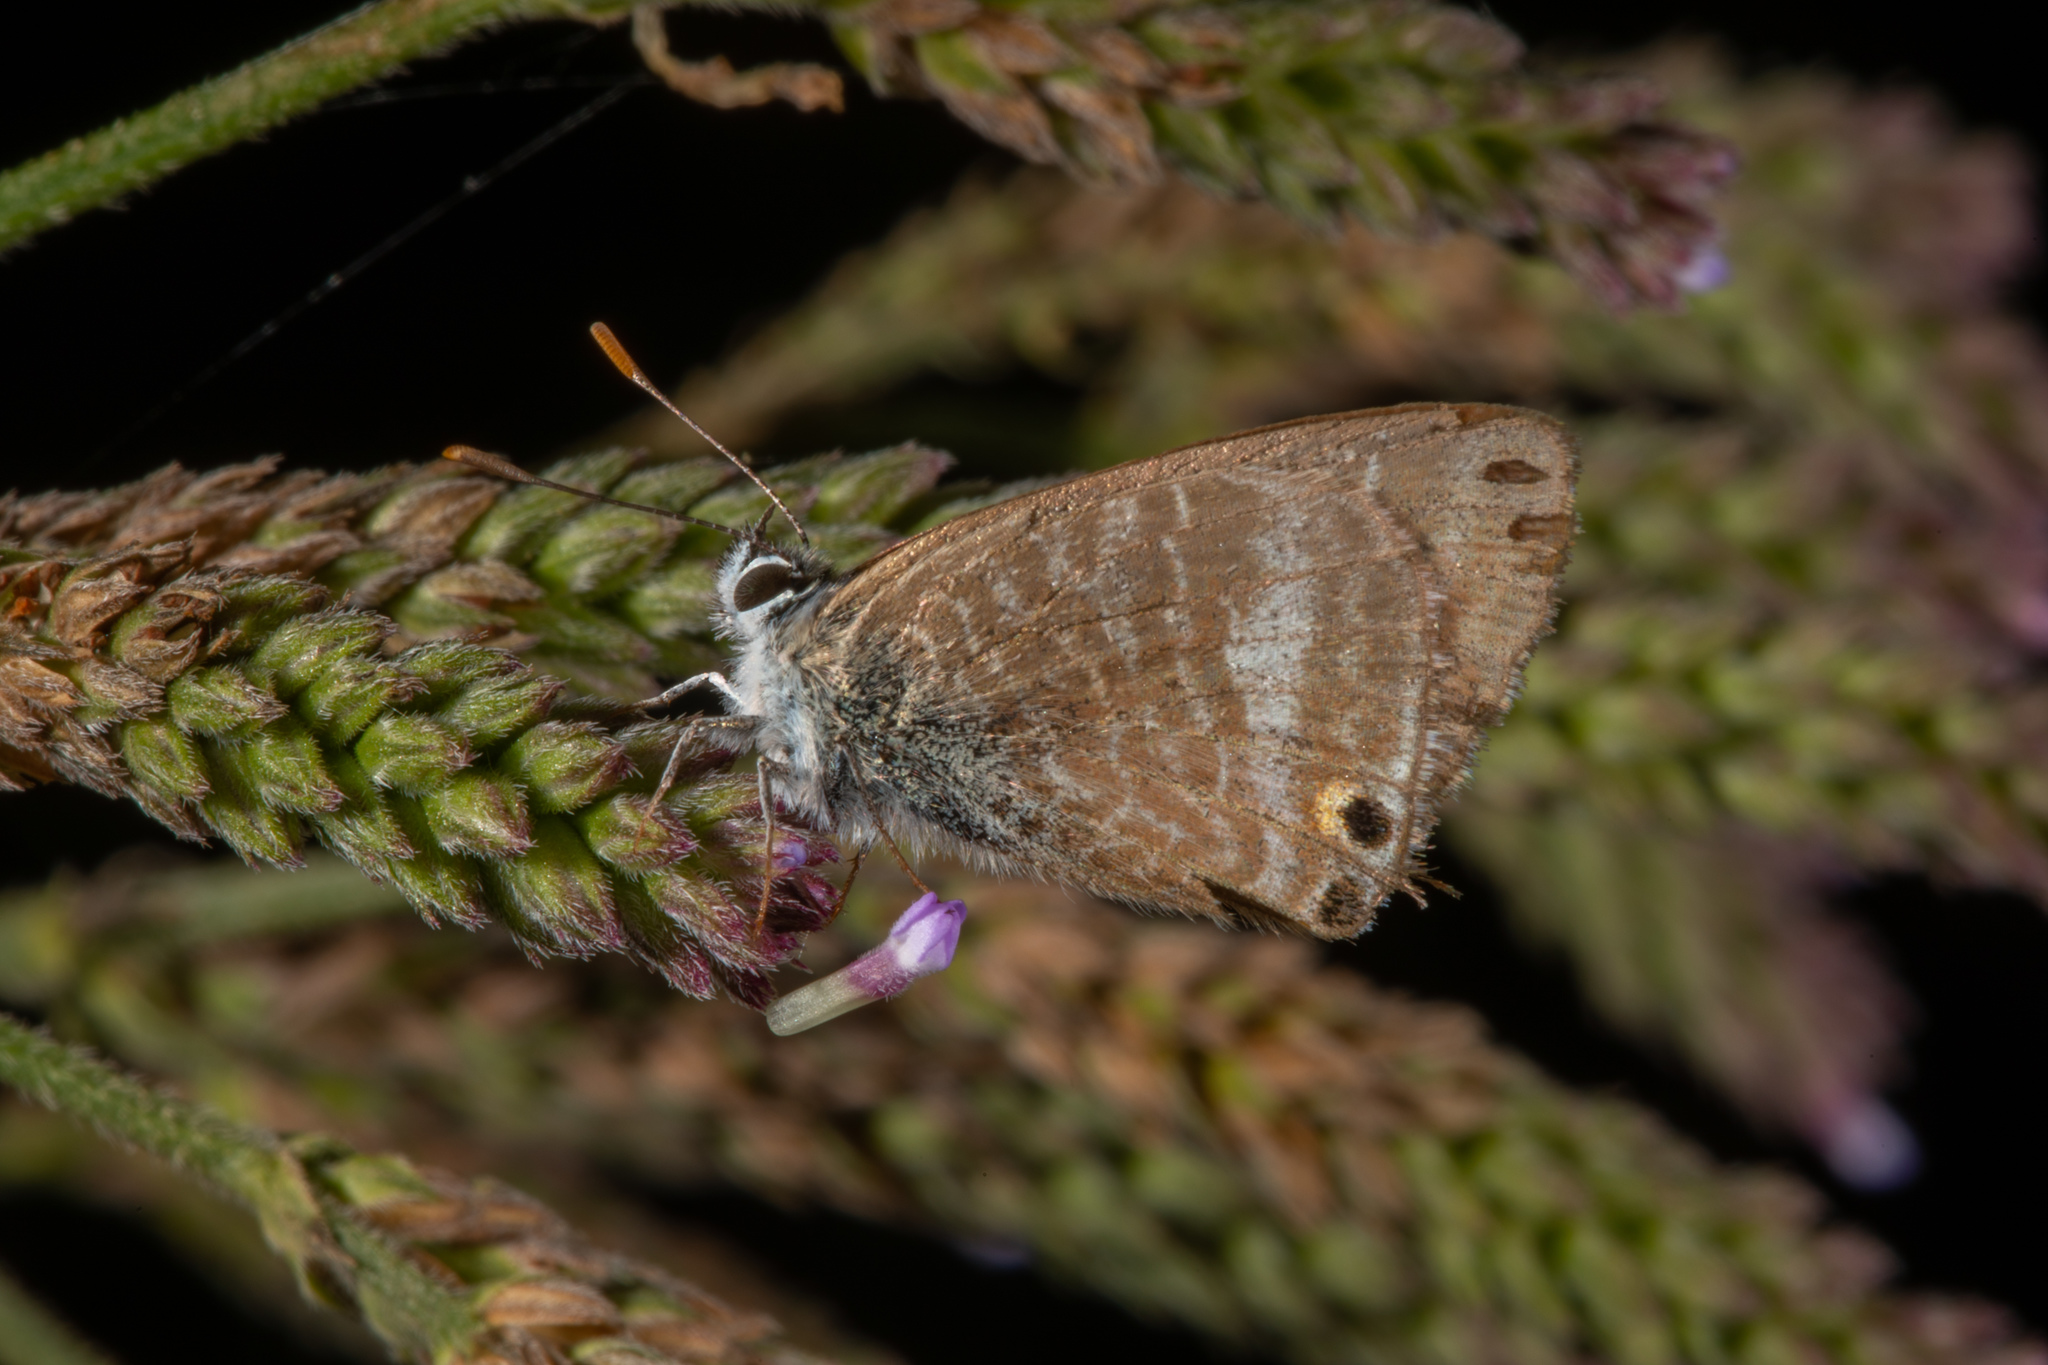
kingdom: Animalia
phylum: Arthropoda
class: Insecta
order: Lepidoptera
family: Lycaenidae
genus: Lampides
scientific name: Lampides boeticus
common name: Long-tailed blue
